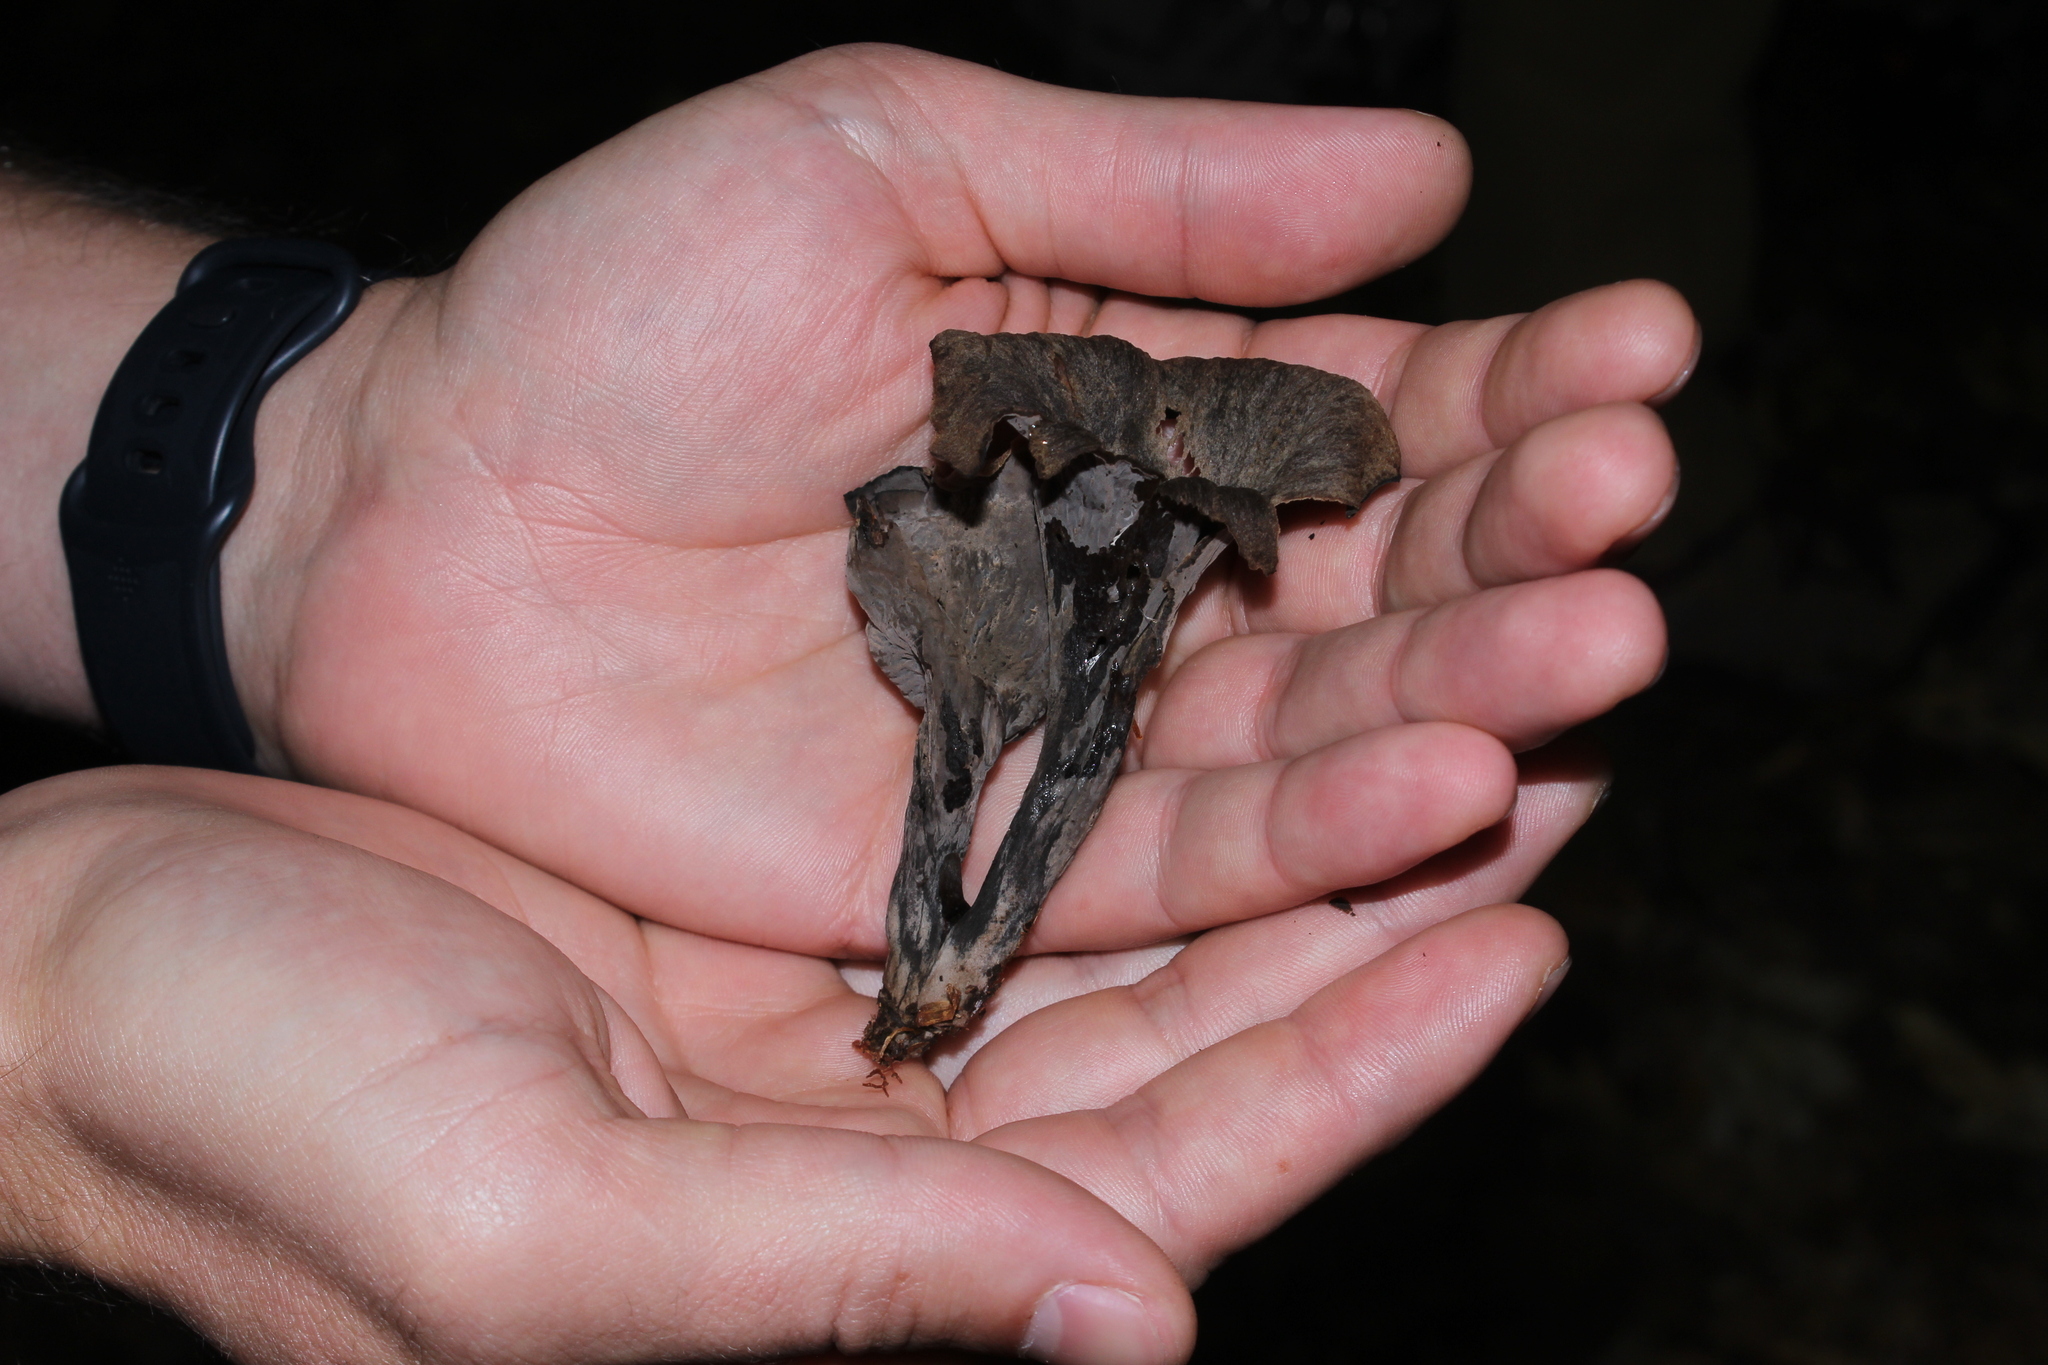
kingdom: Fungi
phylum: Basidiomycota
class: Agaricomycetes
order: Cantharellales
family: Hydnaceae
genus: Craterellus
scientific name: Craterellus cornucopioides
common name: Horn of plenty
